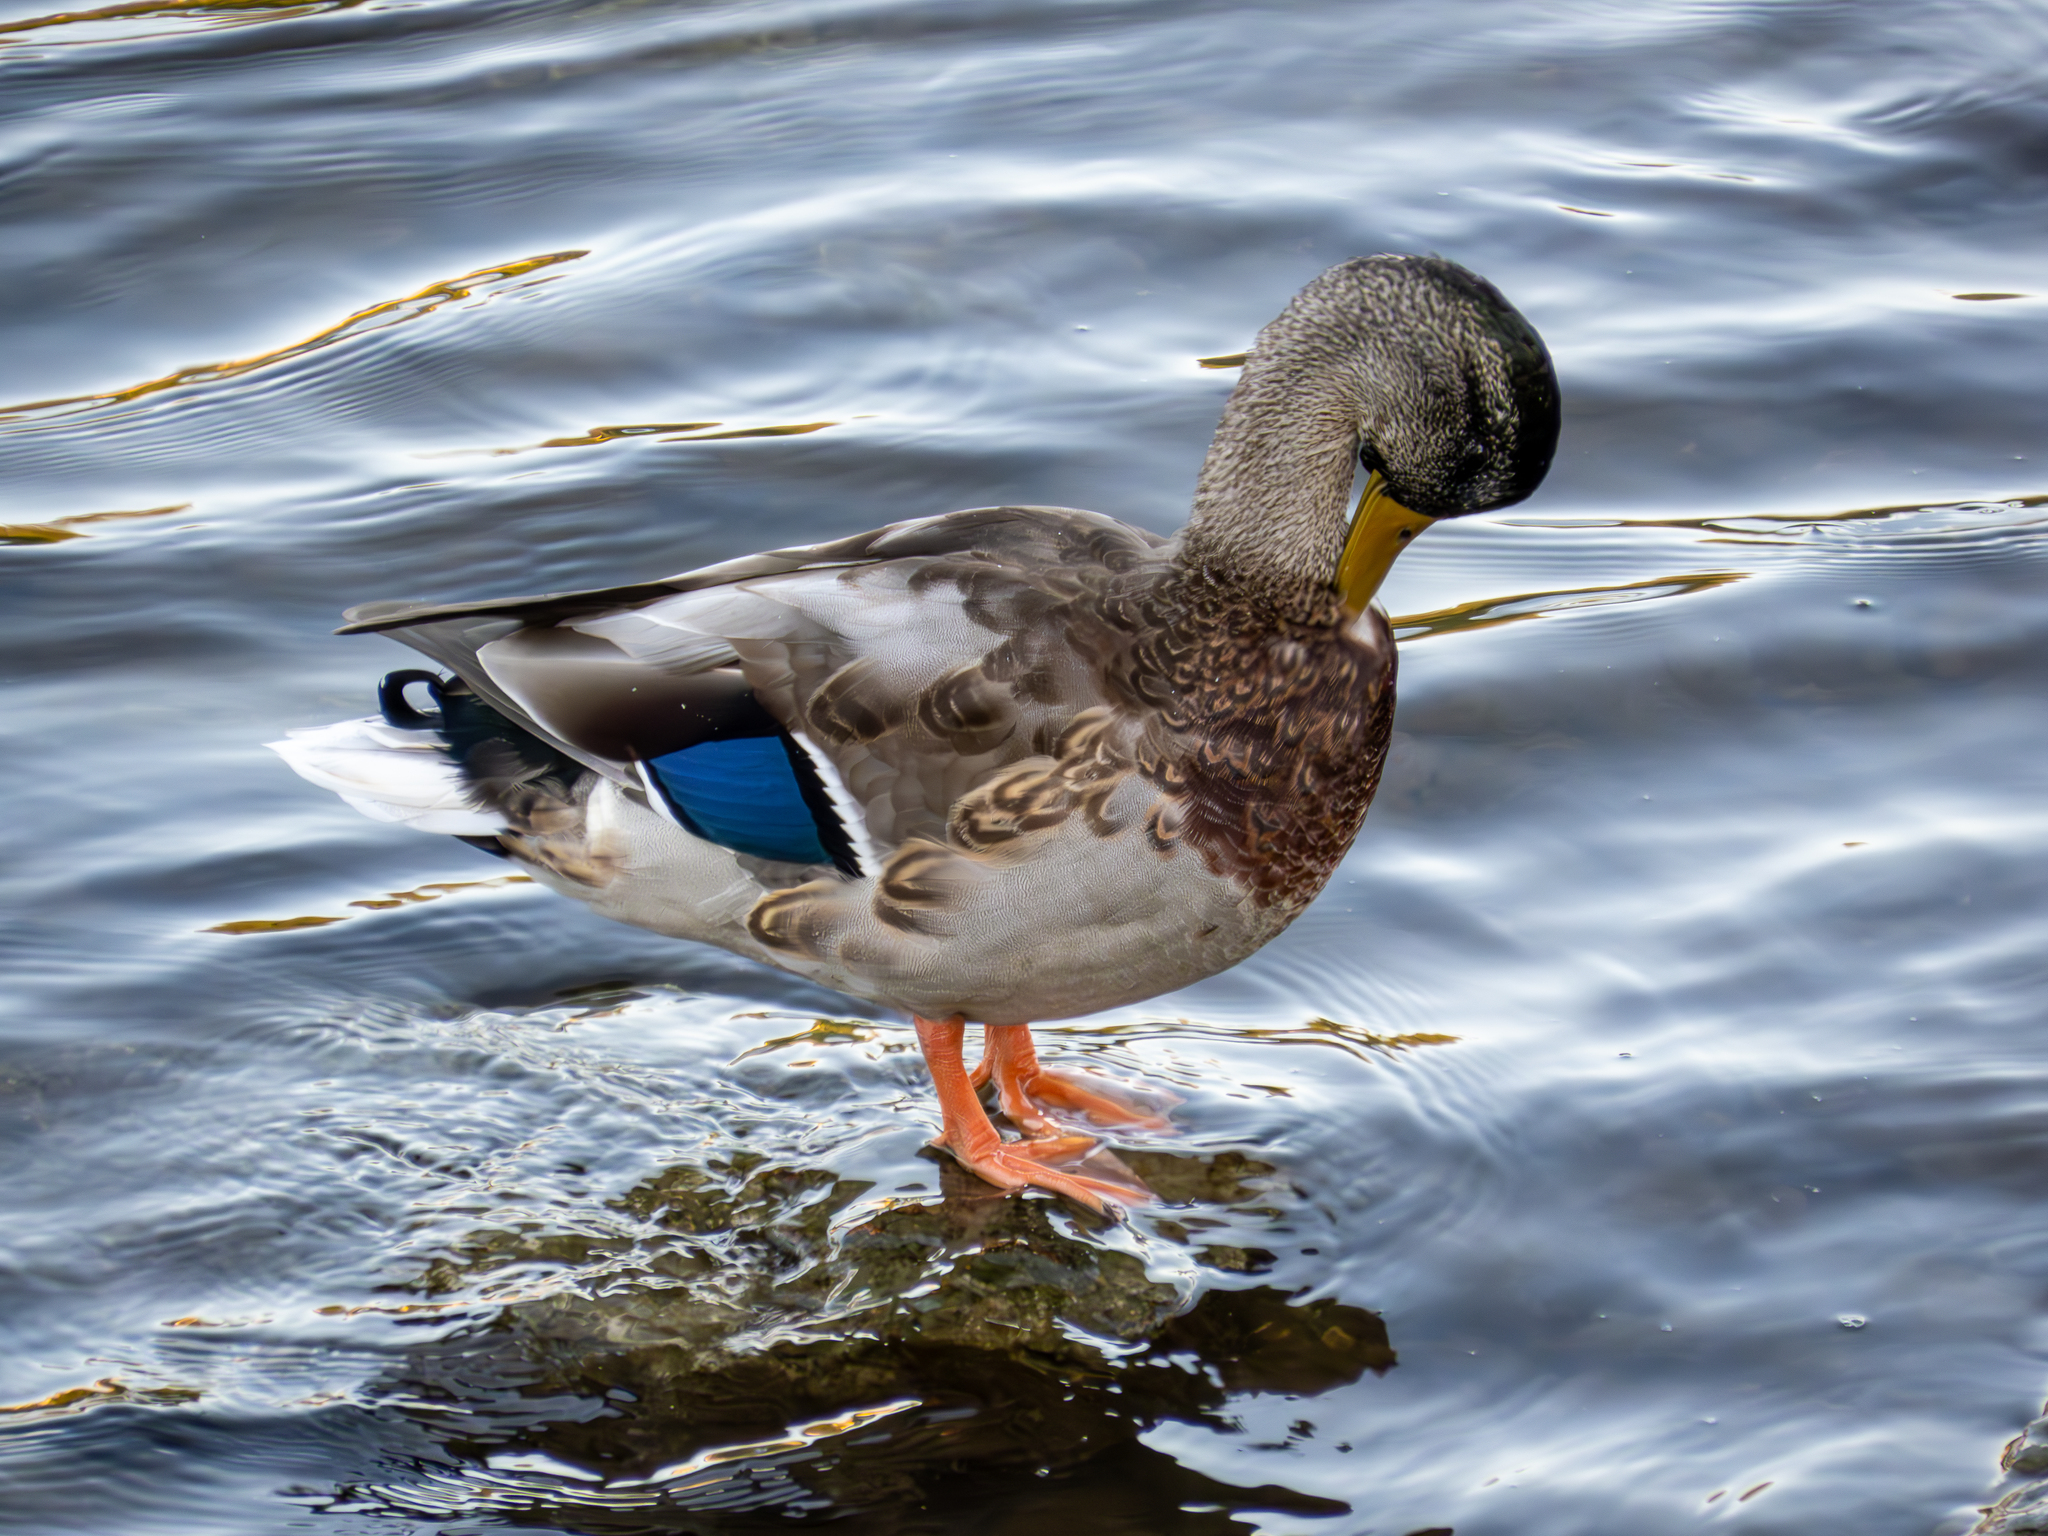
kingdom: Animalia
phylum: Chordata
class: Aves
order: Anseriformes
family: Anatidae
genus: Anas
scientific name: Anas platyrhynchos
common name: Mallard
